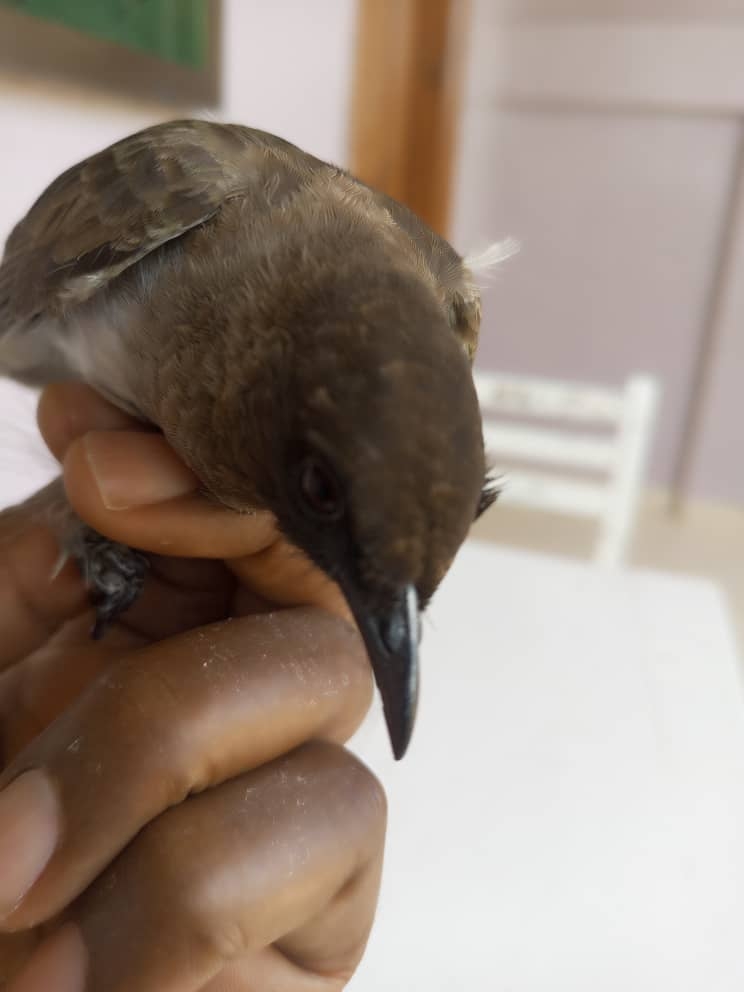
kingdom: Animalia
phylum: Chordata
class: Aves
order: Passeriformes
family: Pycnonotidae
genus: Pycnonotus
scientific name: Pycnonotus barbatus
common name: Common bulbul
